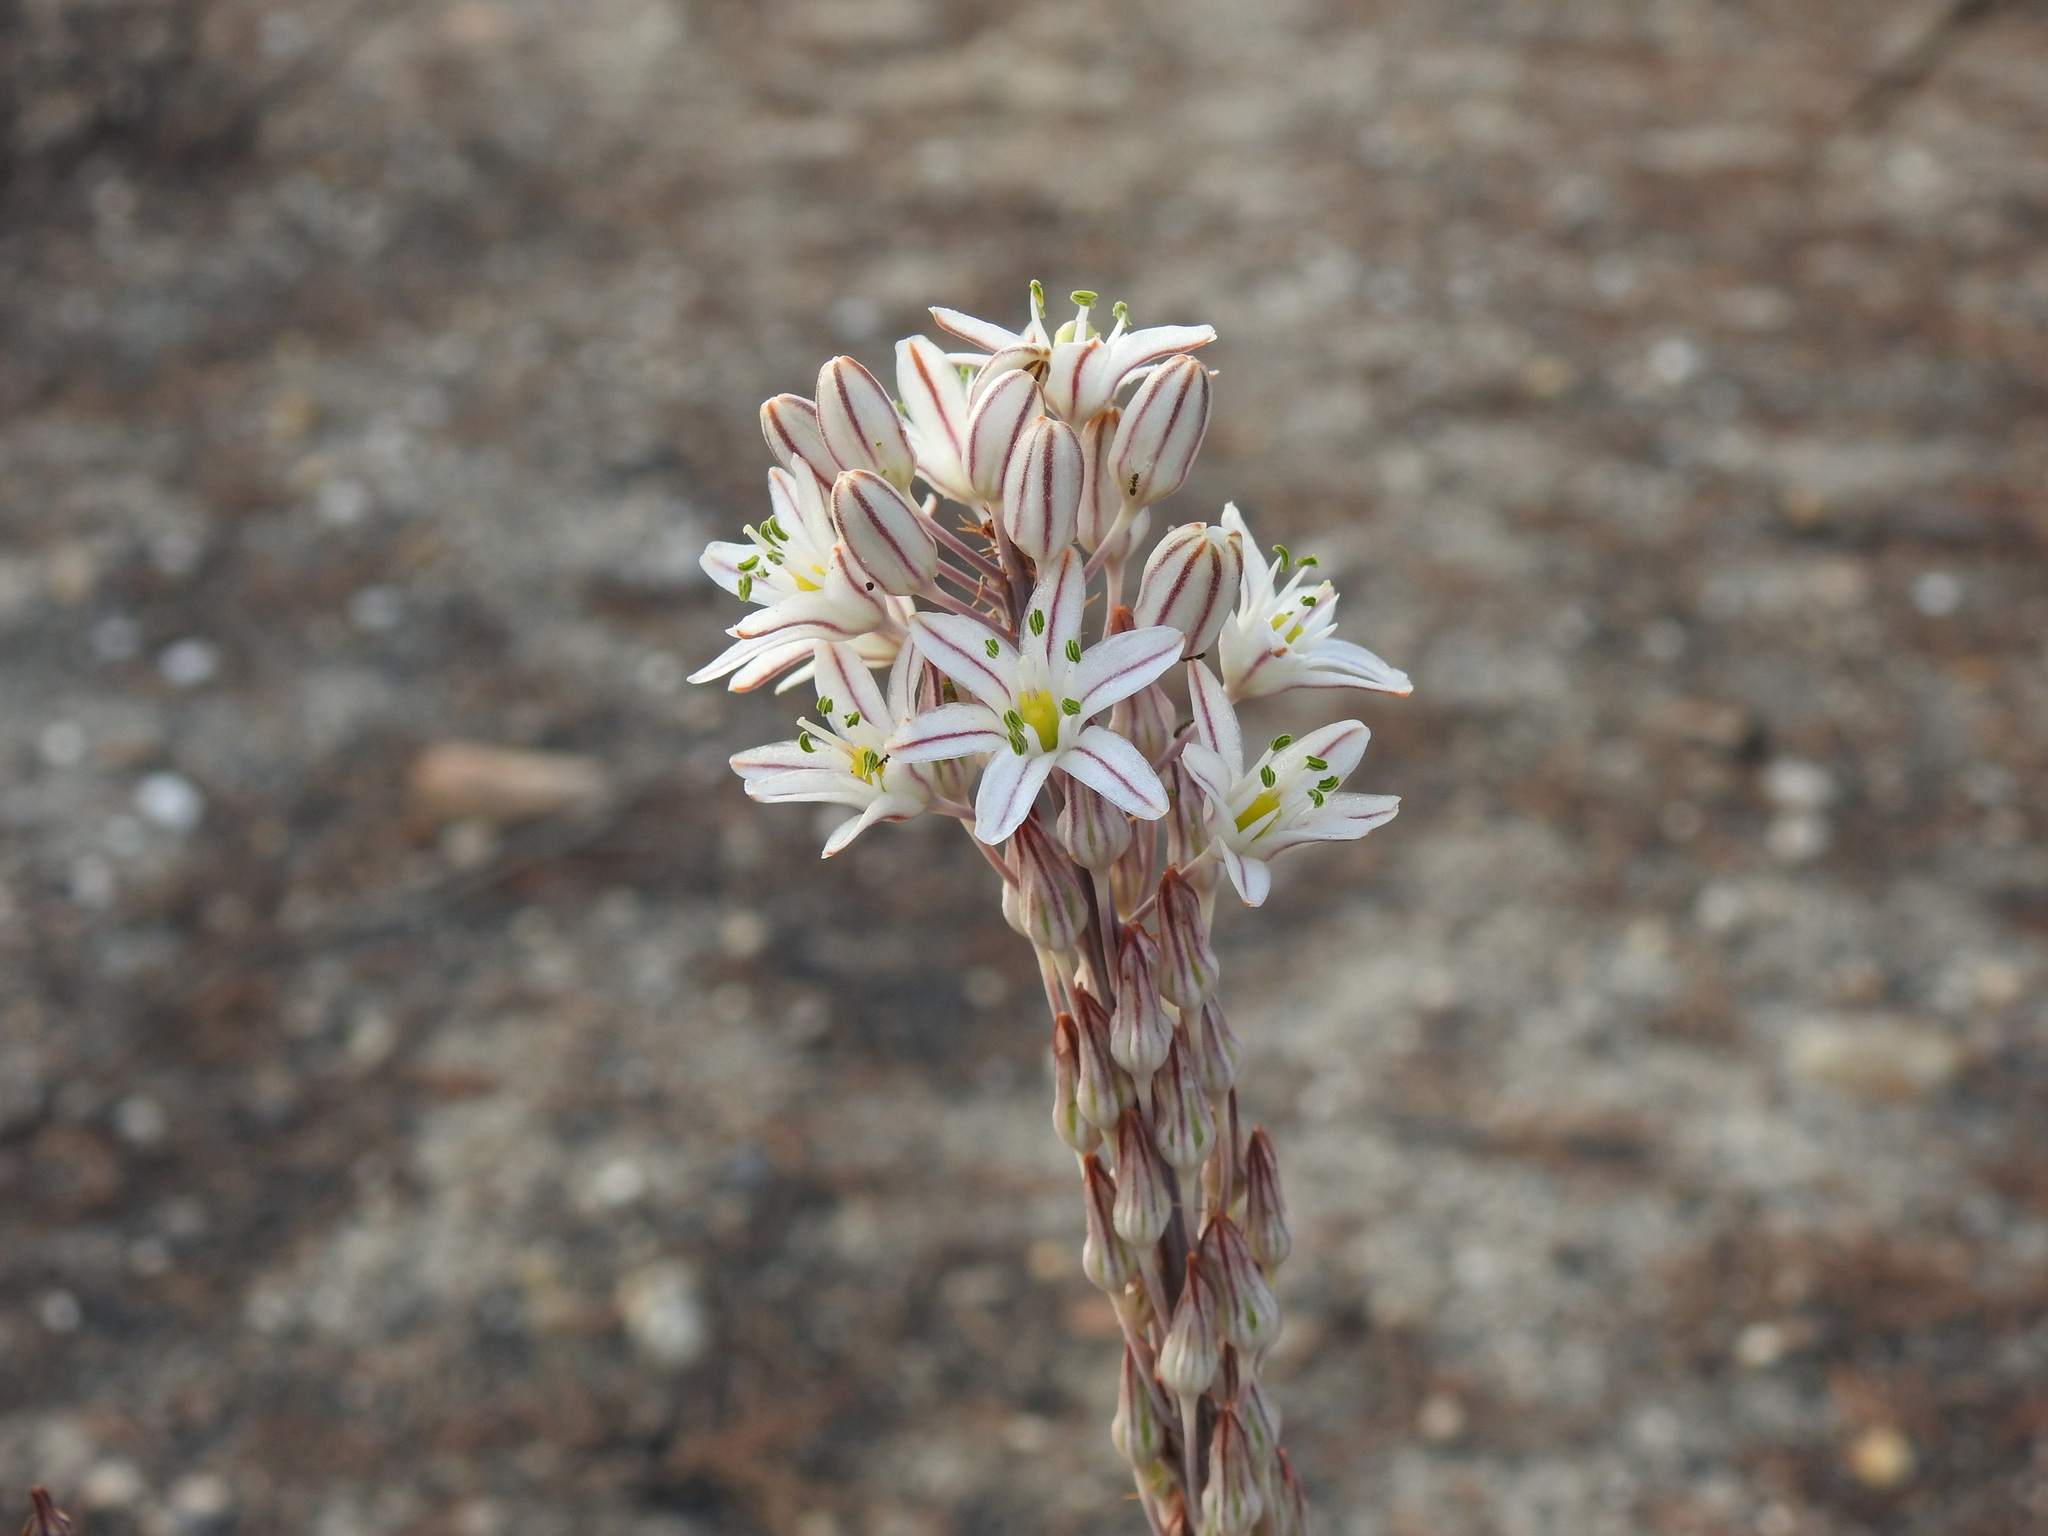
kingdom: Plantae
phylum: Tracheophyta
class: Liliopsida
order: Asparagales
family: Asparagaceae
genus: Drimia
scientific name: Drimia maritima
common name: Maritime squill
